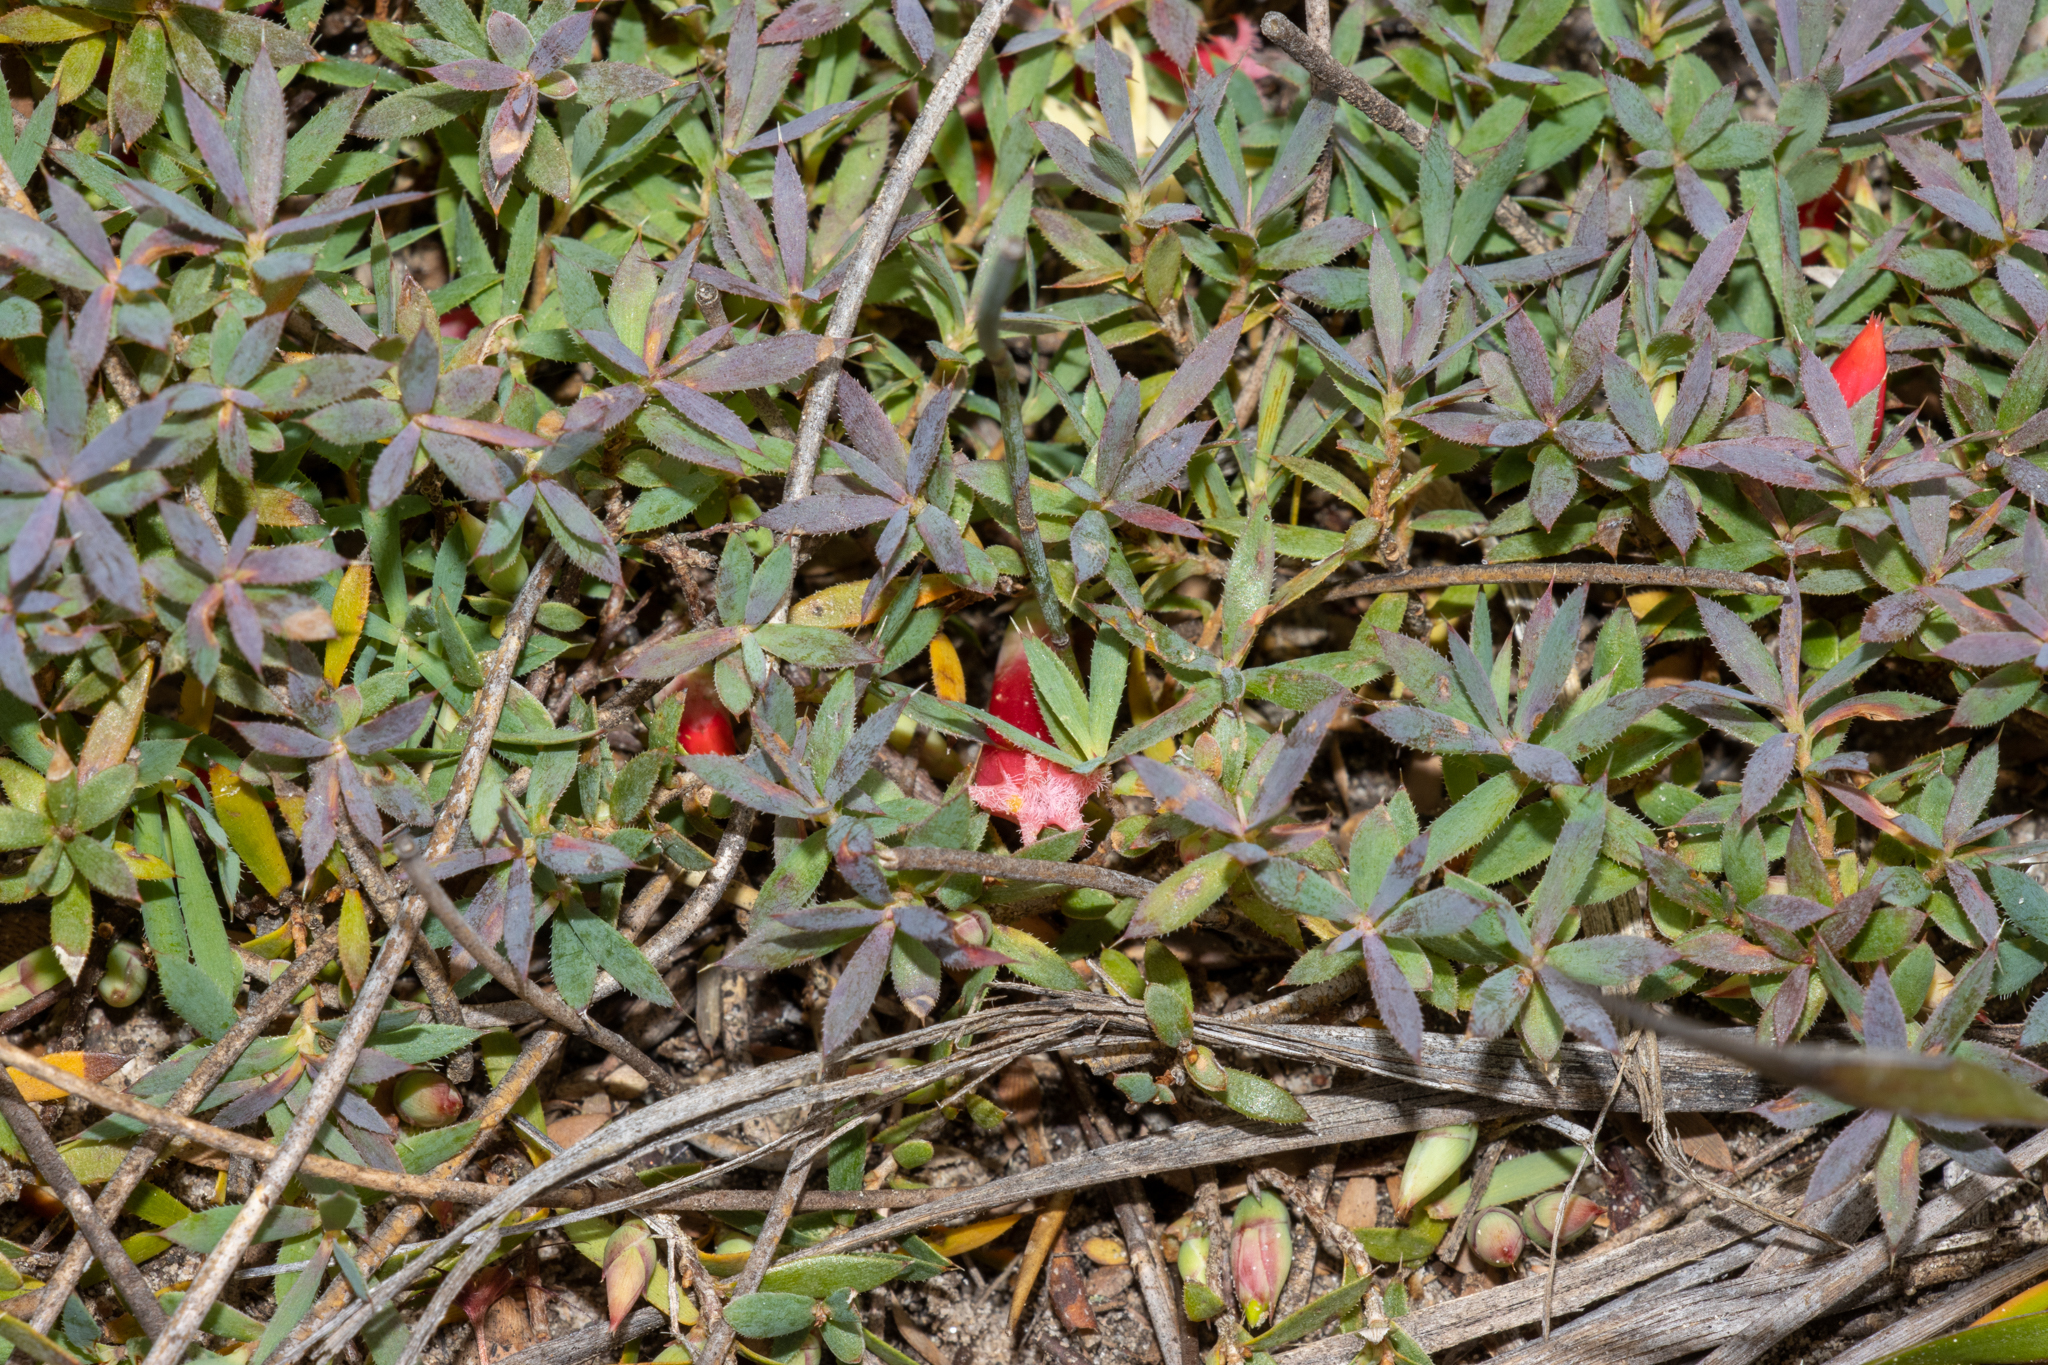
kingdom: Plantae
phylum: Tracheophyta
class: Magnoliopsida
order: Ericales
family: Ericaceae
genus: Styphelia
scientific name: Styphelia humifusa
